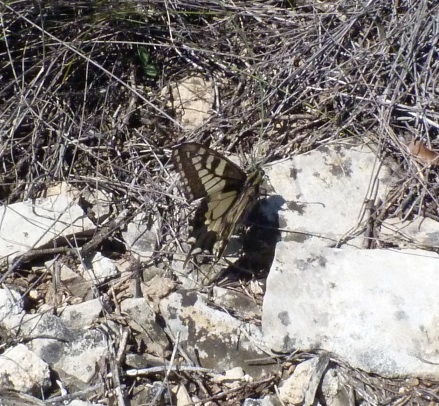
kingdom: Animalia
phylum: Arthropoda
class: Insecta
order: Lepidoptera
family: Papilionidae
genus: Papilio
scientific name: Papilio machaon
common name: Swallowtail
